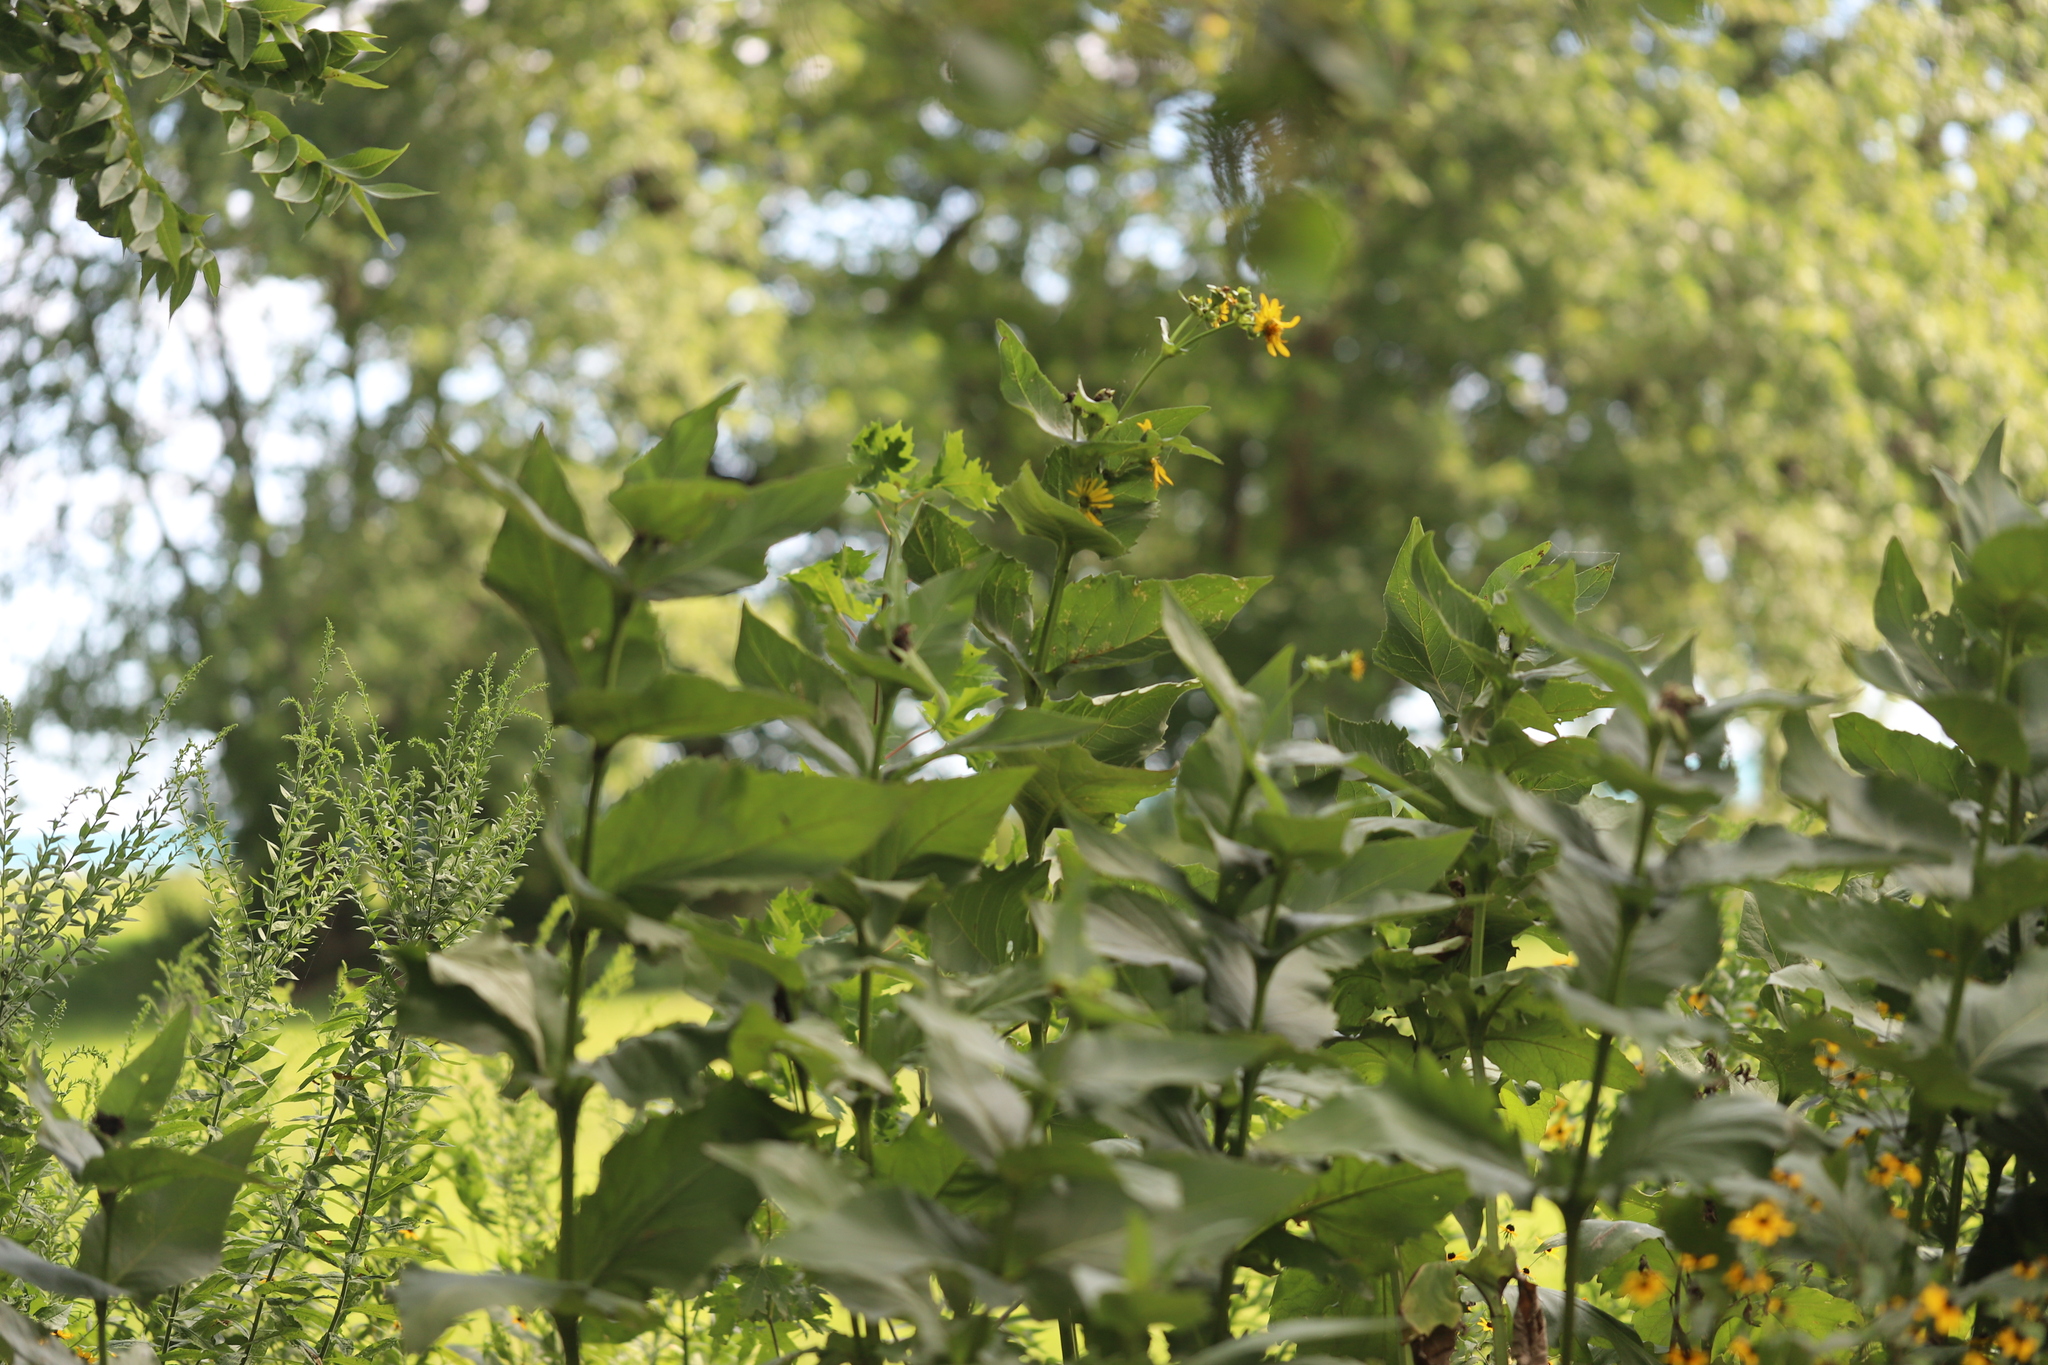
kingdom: Plantae
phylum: Tracheophyta
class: Magnoliopsida
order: Asterales
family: Asteraceae
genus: Silphium
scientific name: Silphium perfoliatum
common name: Cup-plant
